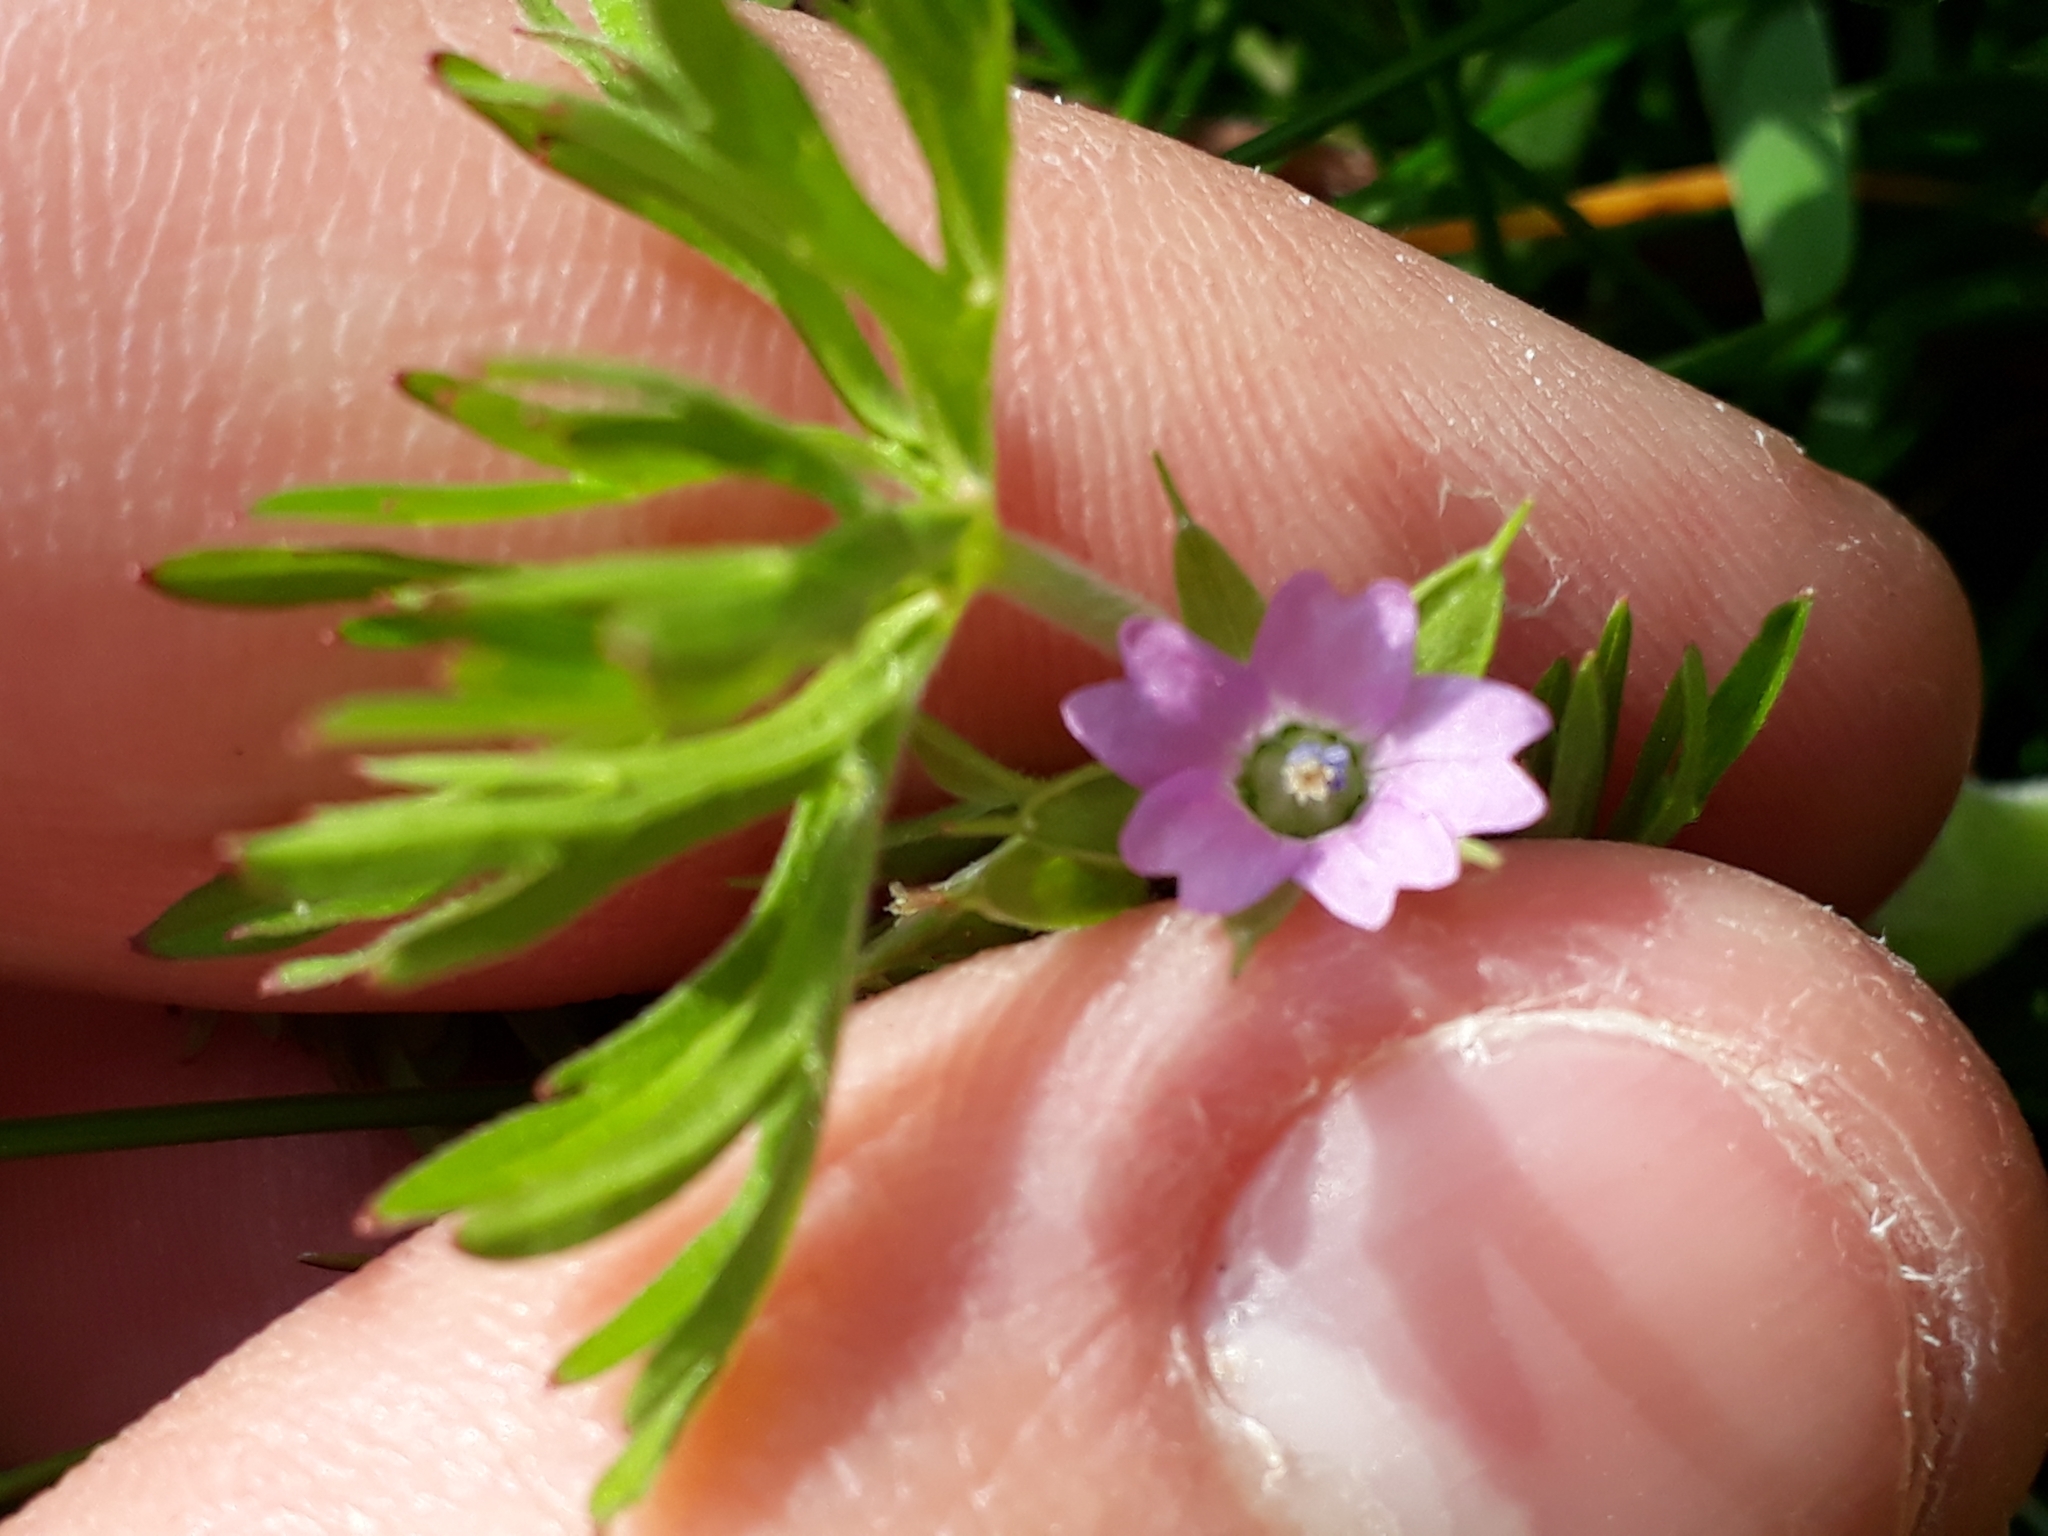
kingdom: Plantae
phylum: Tracheophyta
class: Magnoliopsida
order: Geraniales
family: Geraniaceae
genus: Geranium
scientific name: Geranium dissectum
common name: Cut-leaved crane's-bill
